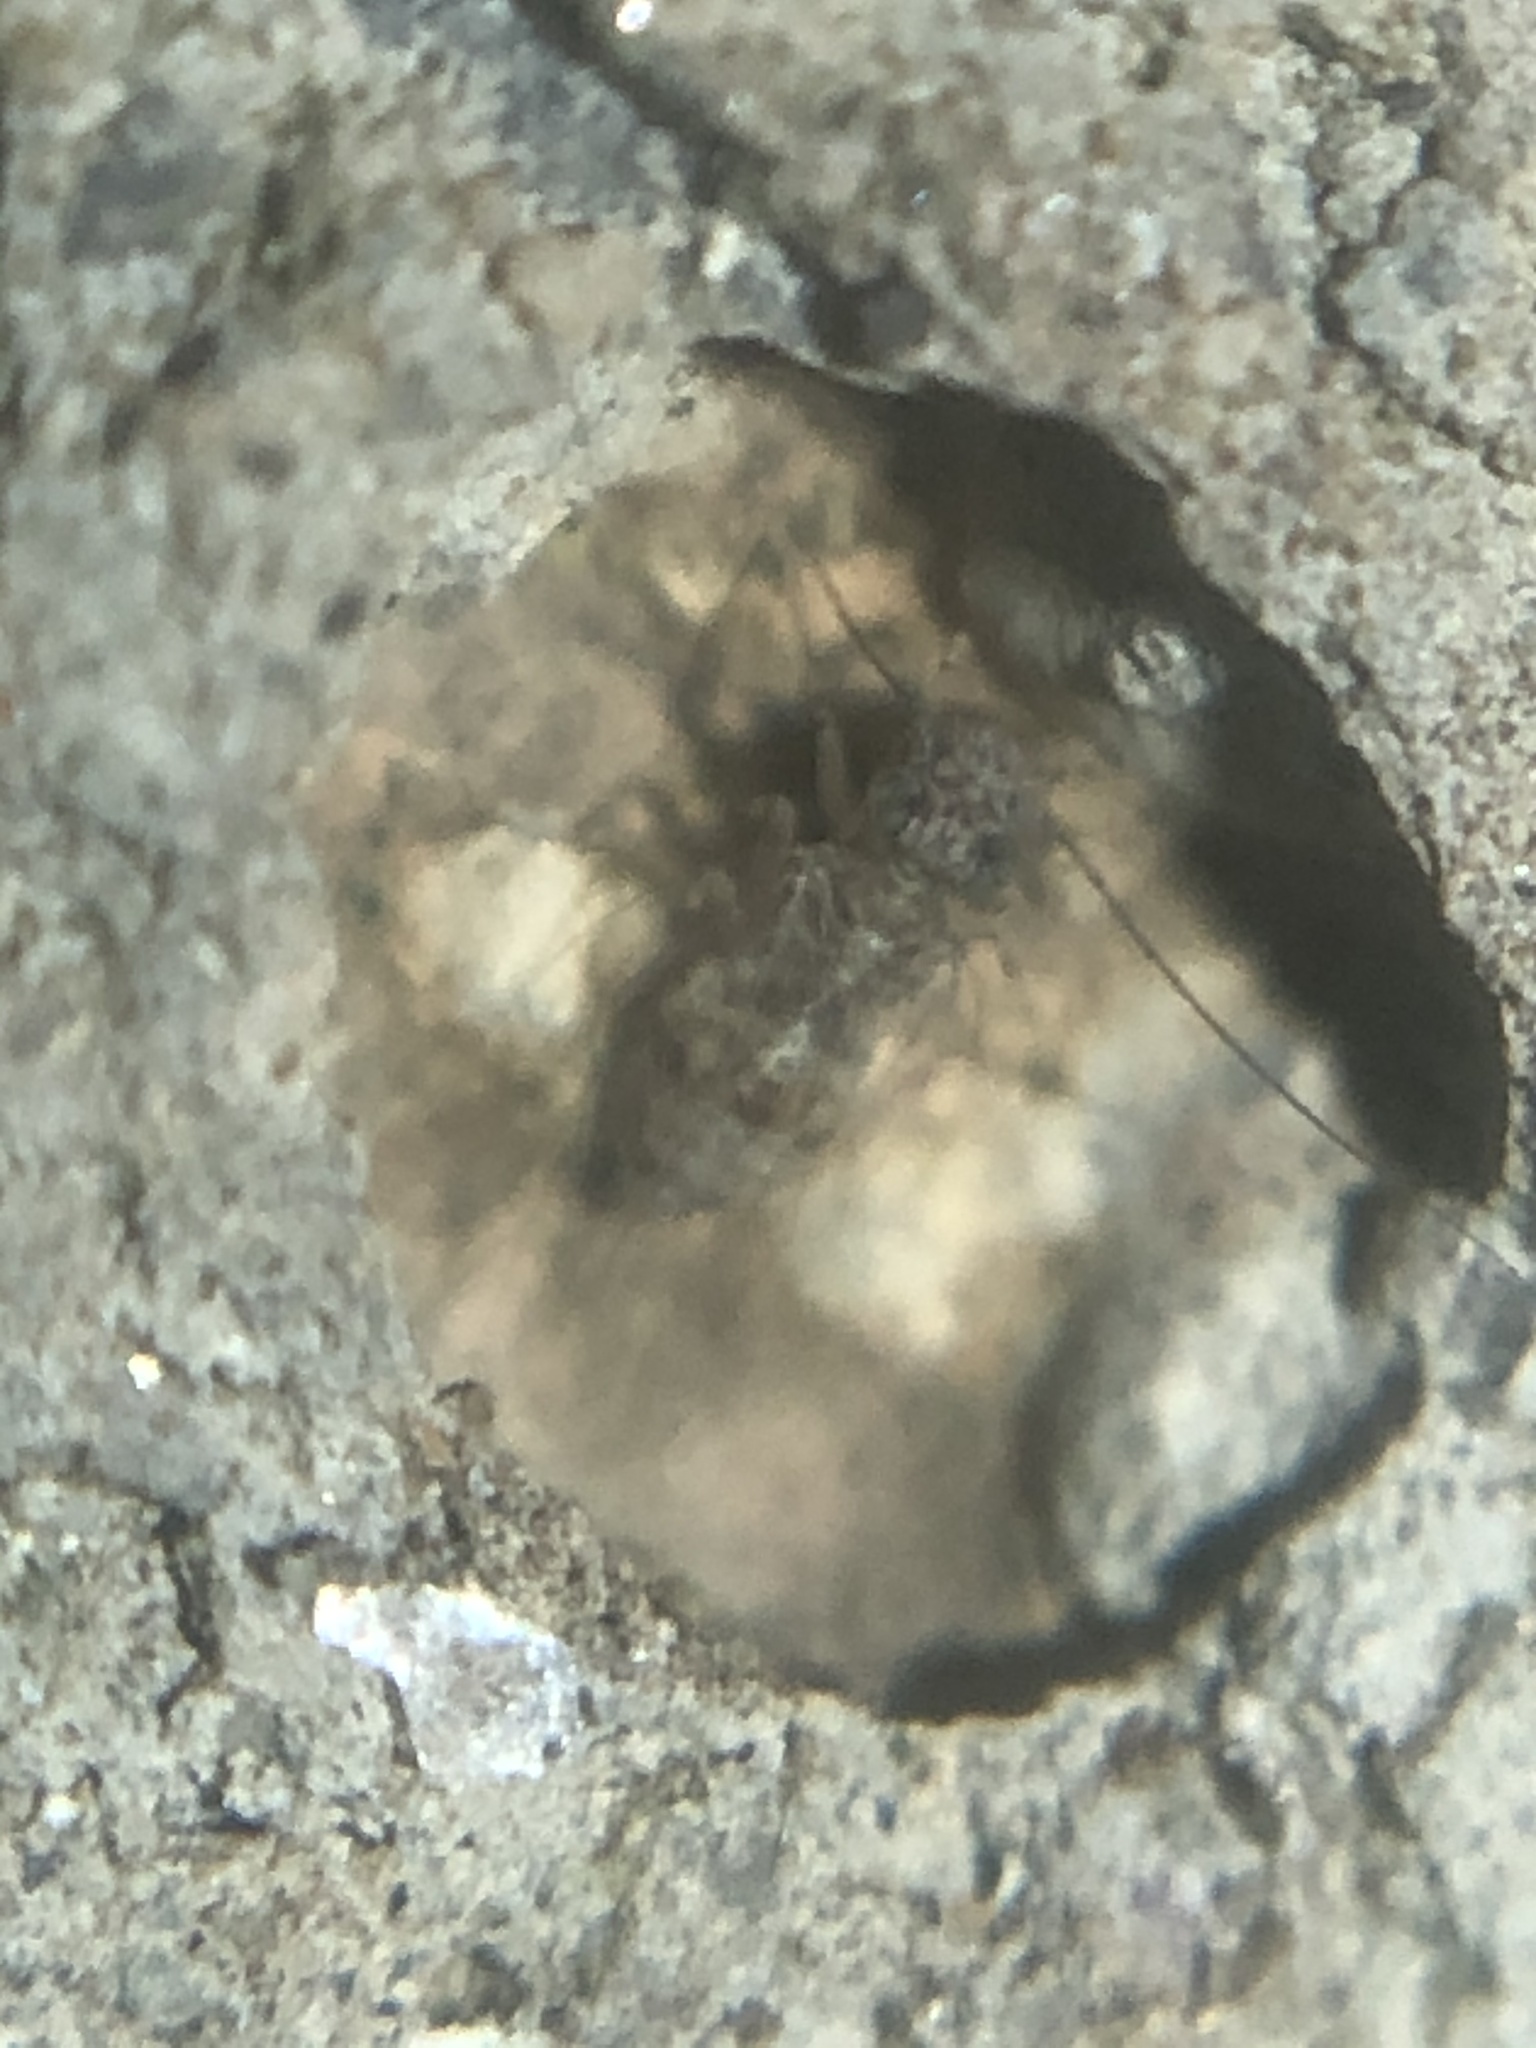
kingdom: Animalia
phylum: Arthropoda
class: Insecta
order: Psocodea
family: Psyllipsocidae
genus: Psyllipsocus
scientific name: Psyllipsocus decoratus
